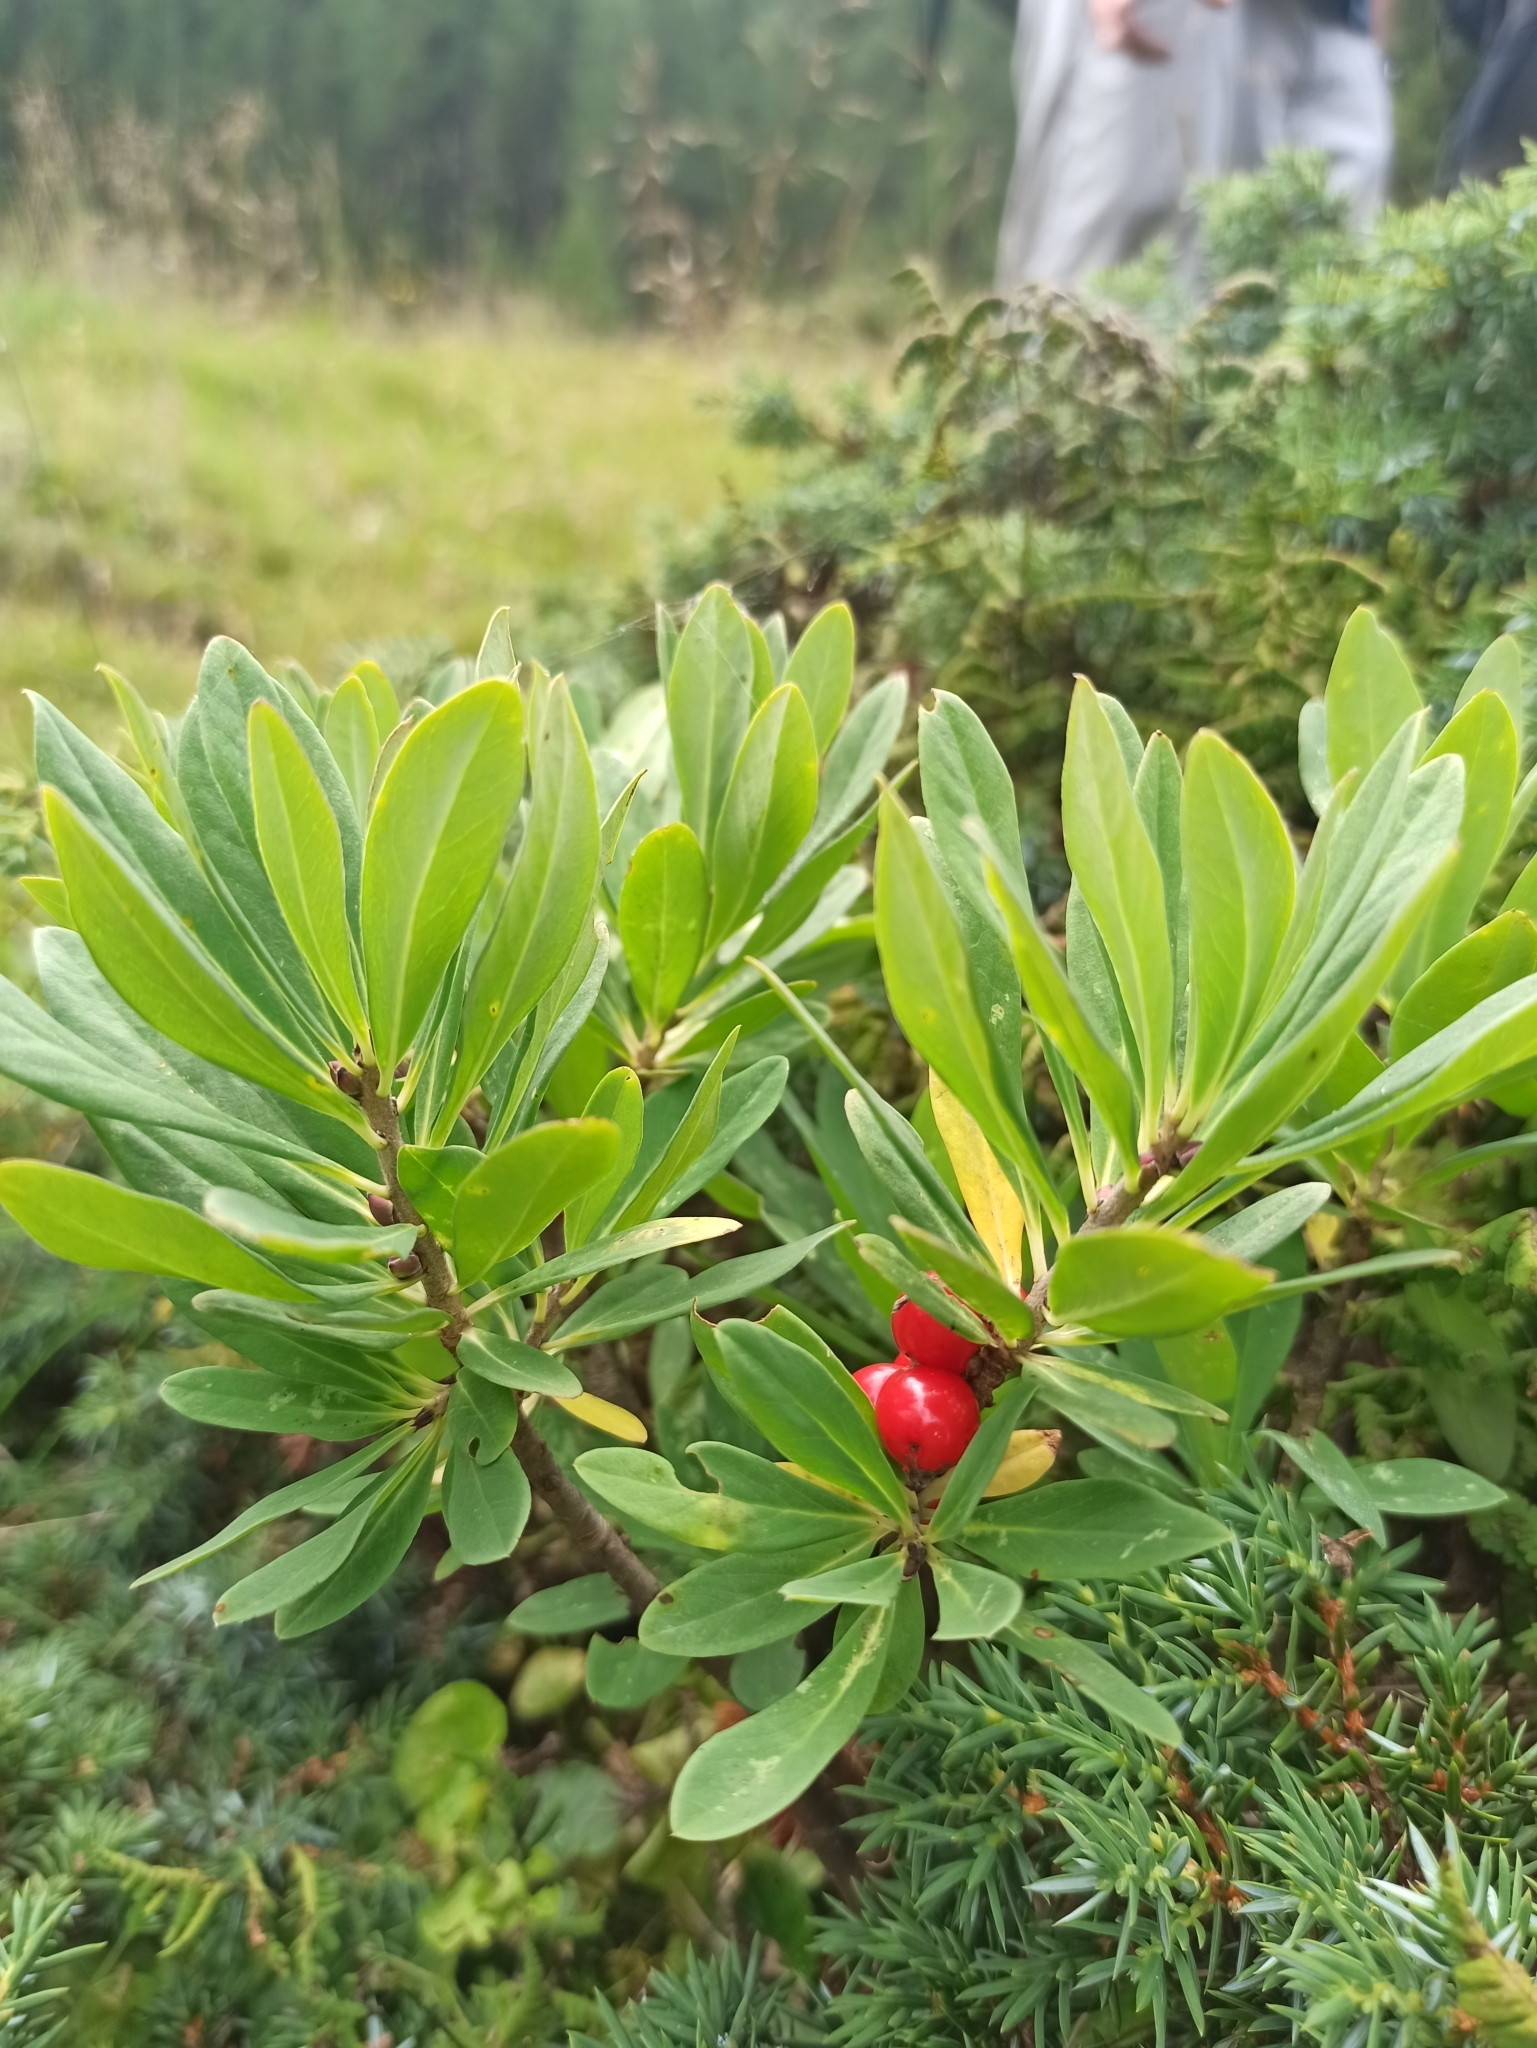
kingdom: Plantae
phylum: Tracheophyta
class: Magnoliopsida
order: Malvales
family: Thymelaeaceae
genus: Daphne
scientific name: Daphne mezereum
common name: Mezereon
